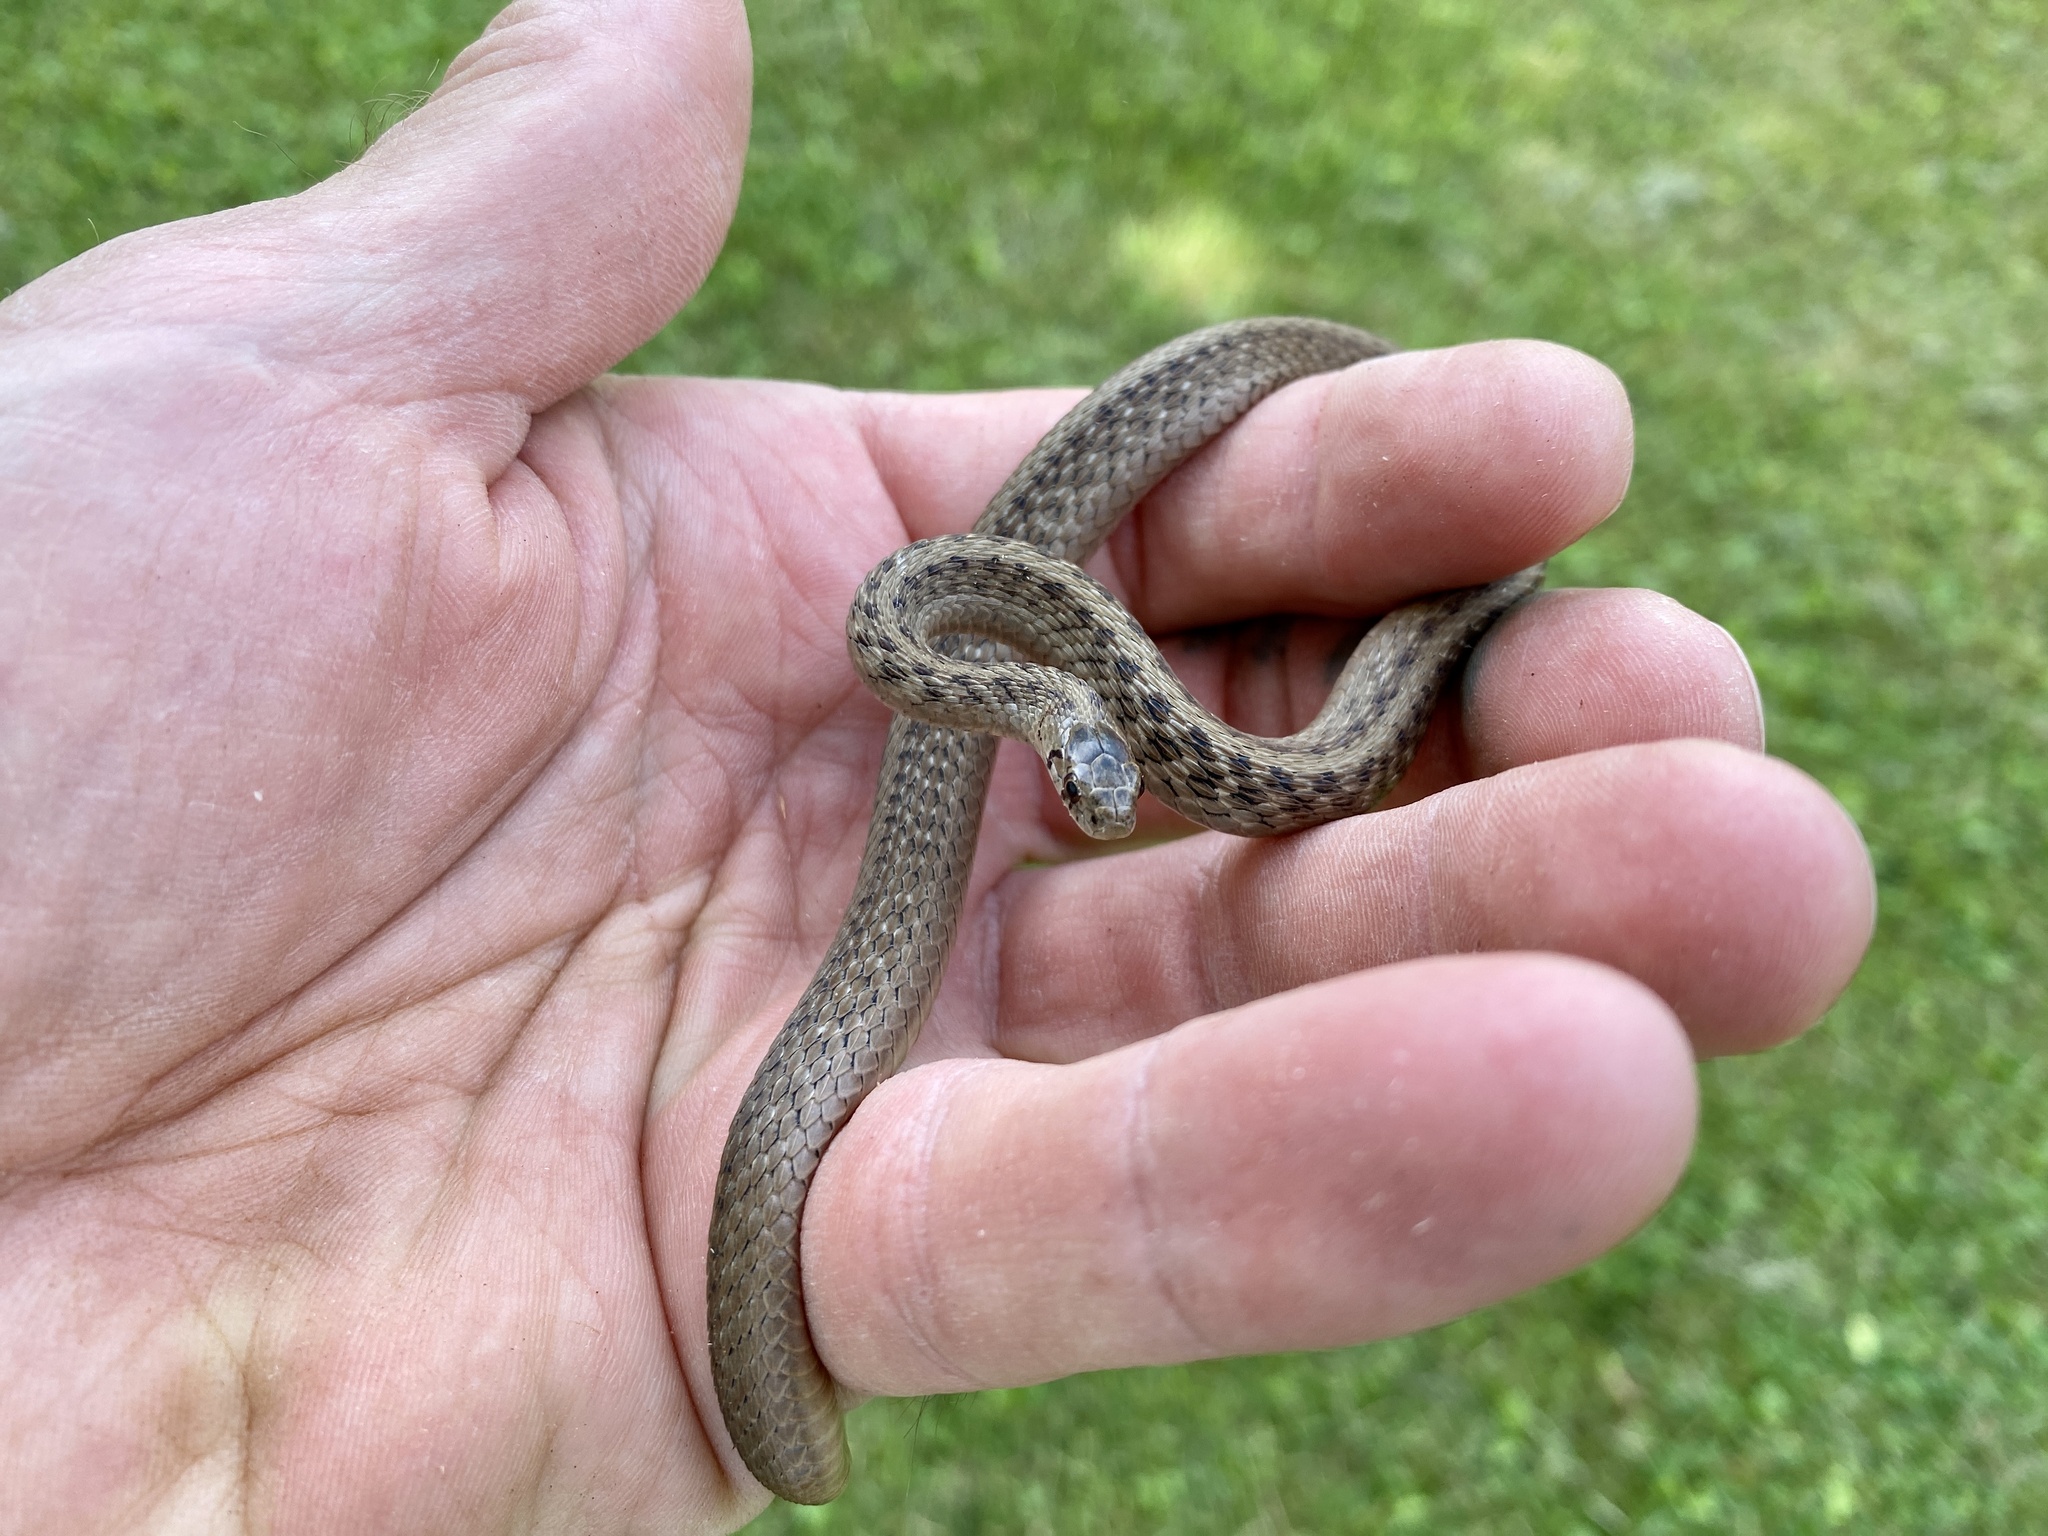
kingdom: Animalia
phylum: Chordata
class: Squamata
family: Colubridae
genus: Storeria
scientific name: Storeria dekayi
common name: (dekay’s) brown snake
